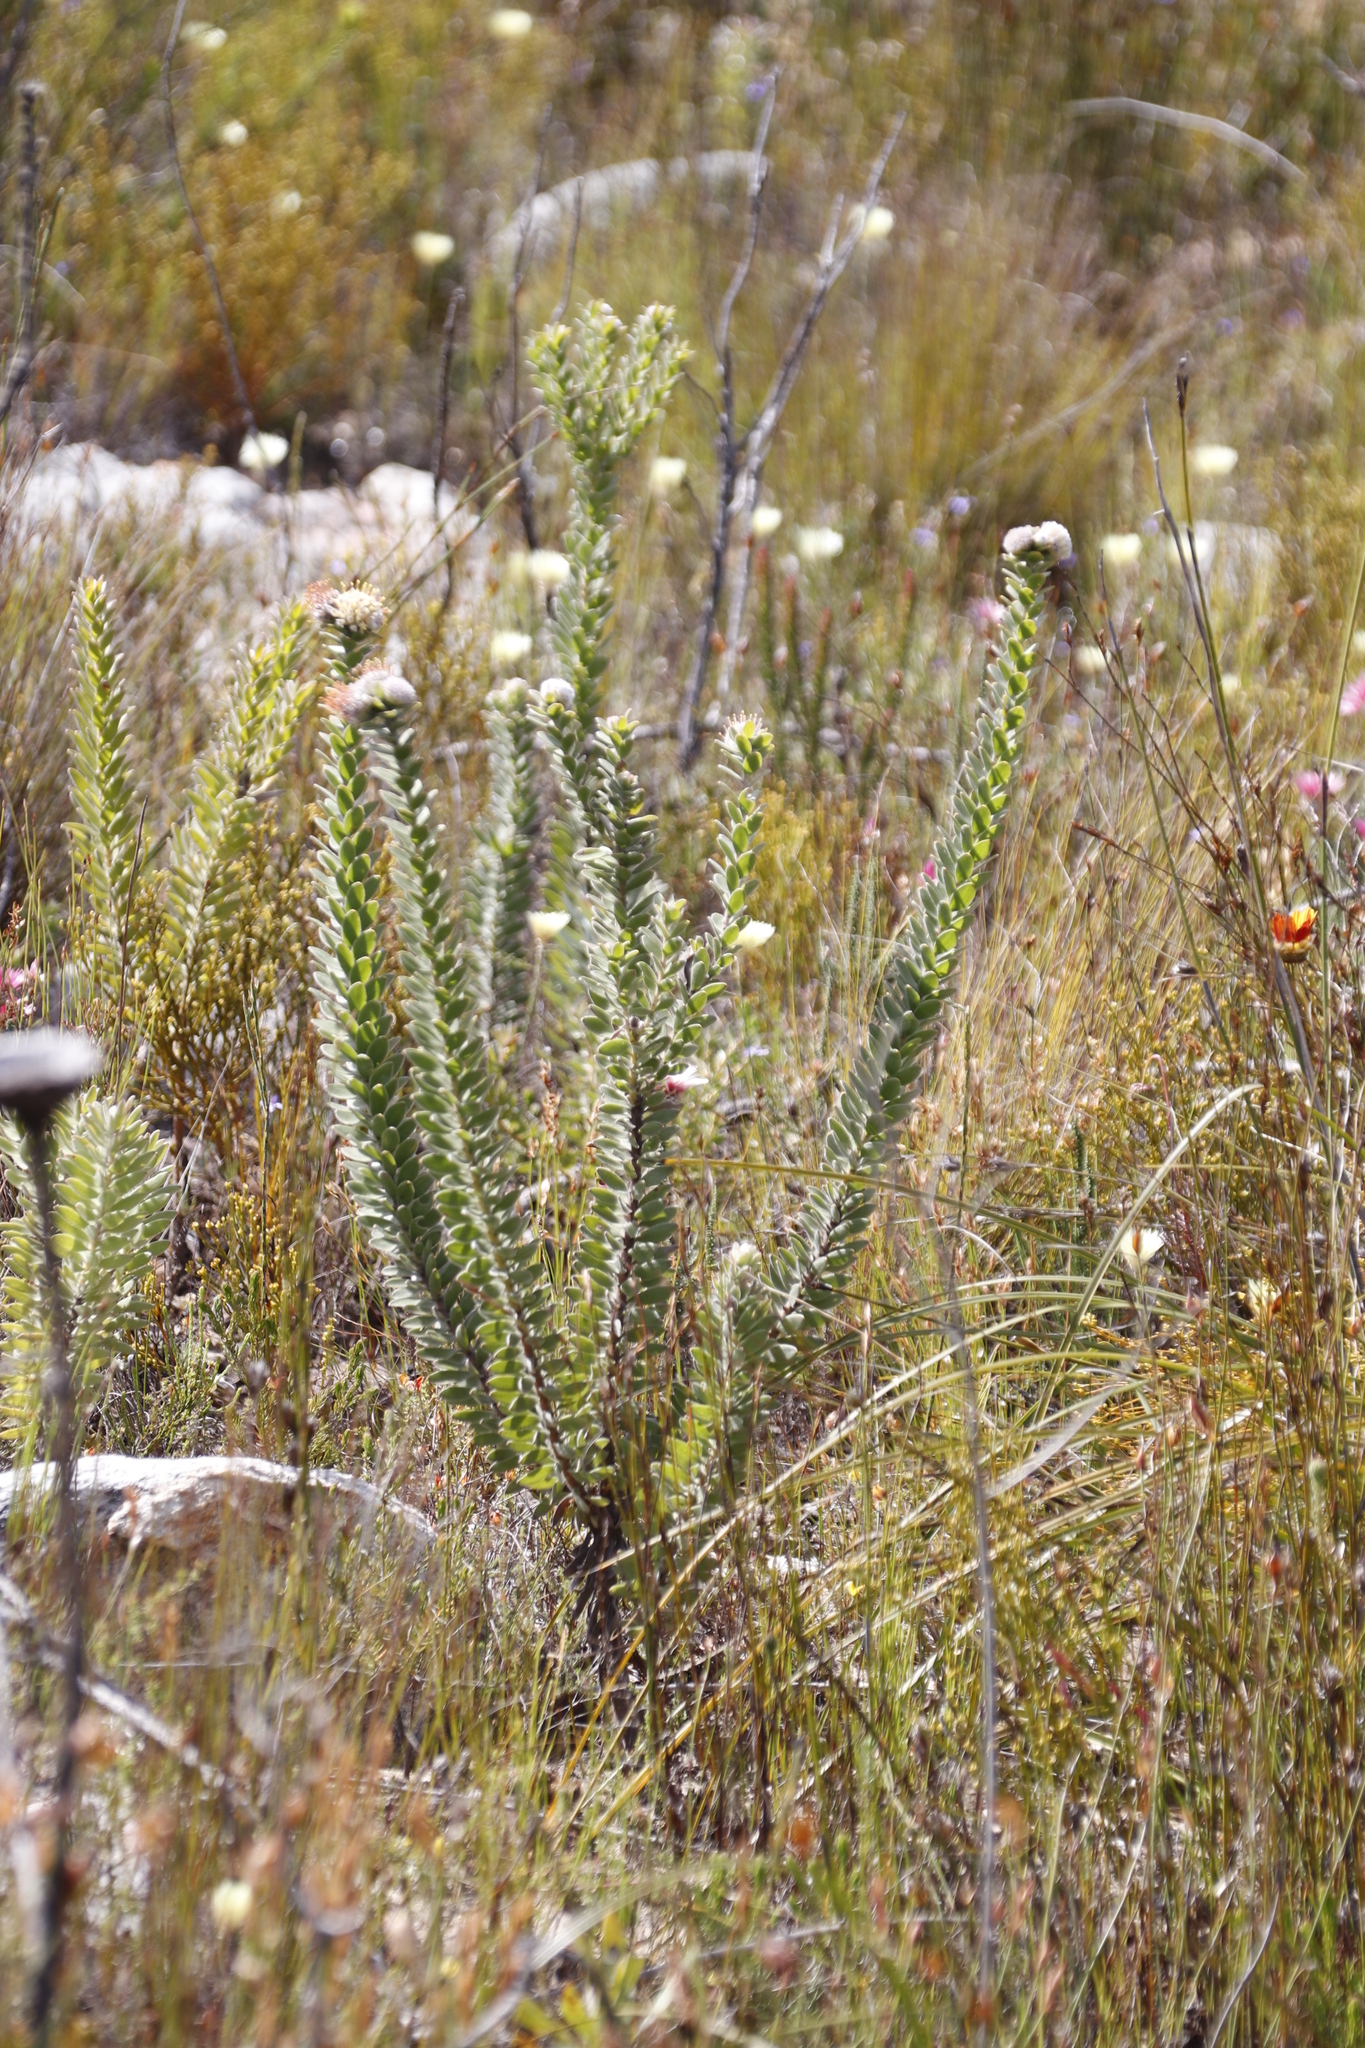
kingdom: Plantae
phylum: Tracheophyta
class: Magnoliopsida
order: Proteales
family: Proteaceae
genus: Leucospermum
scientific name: Leucospermum truncatulum
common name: Oval-leaf pincushion
